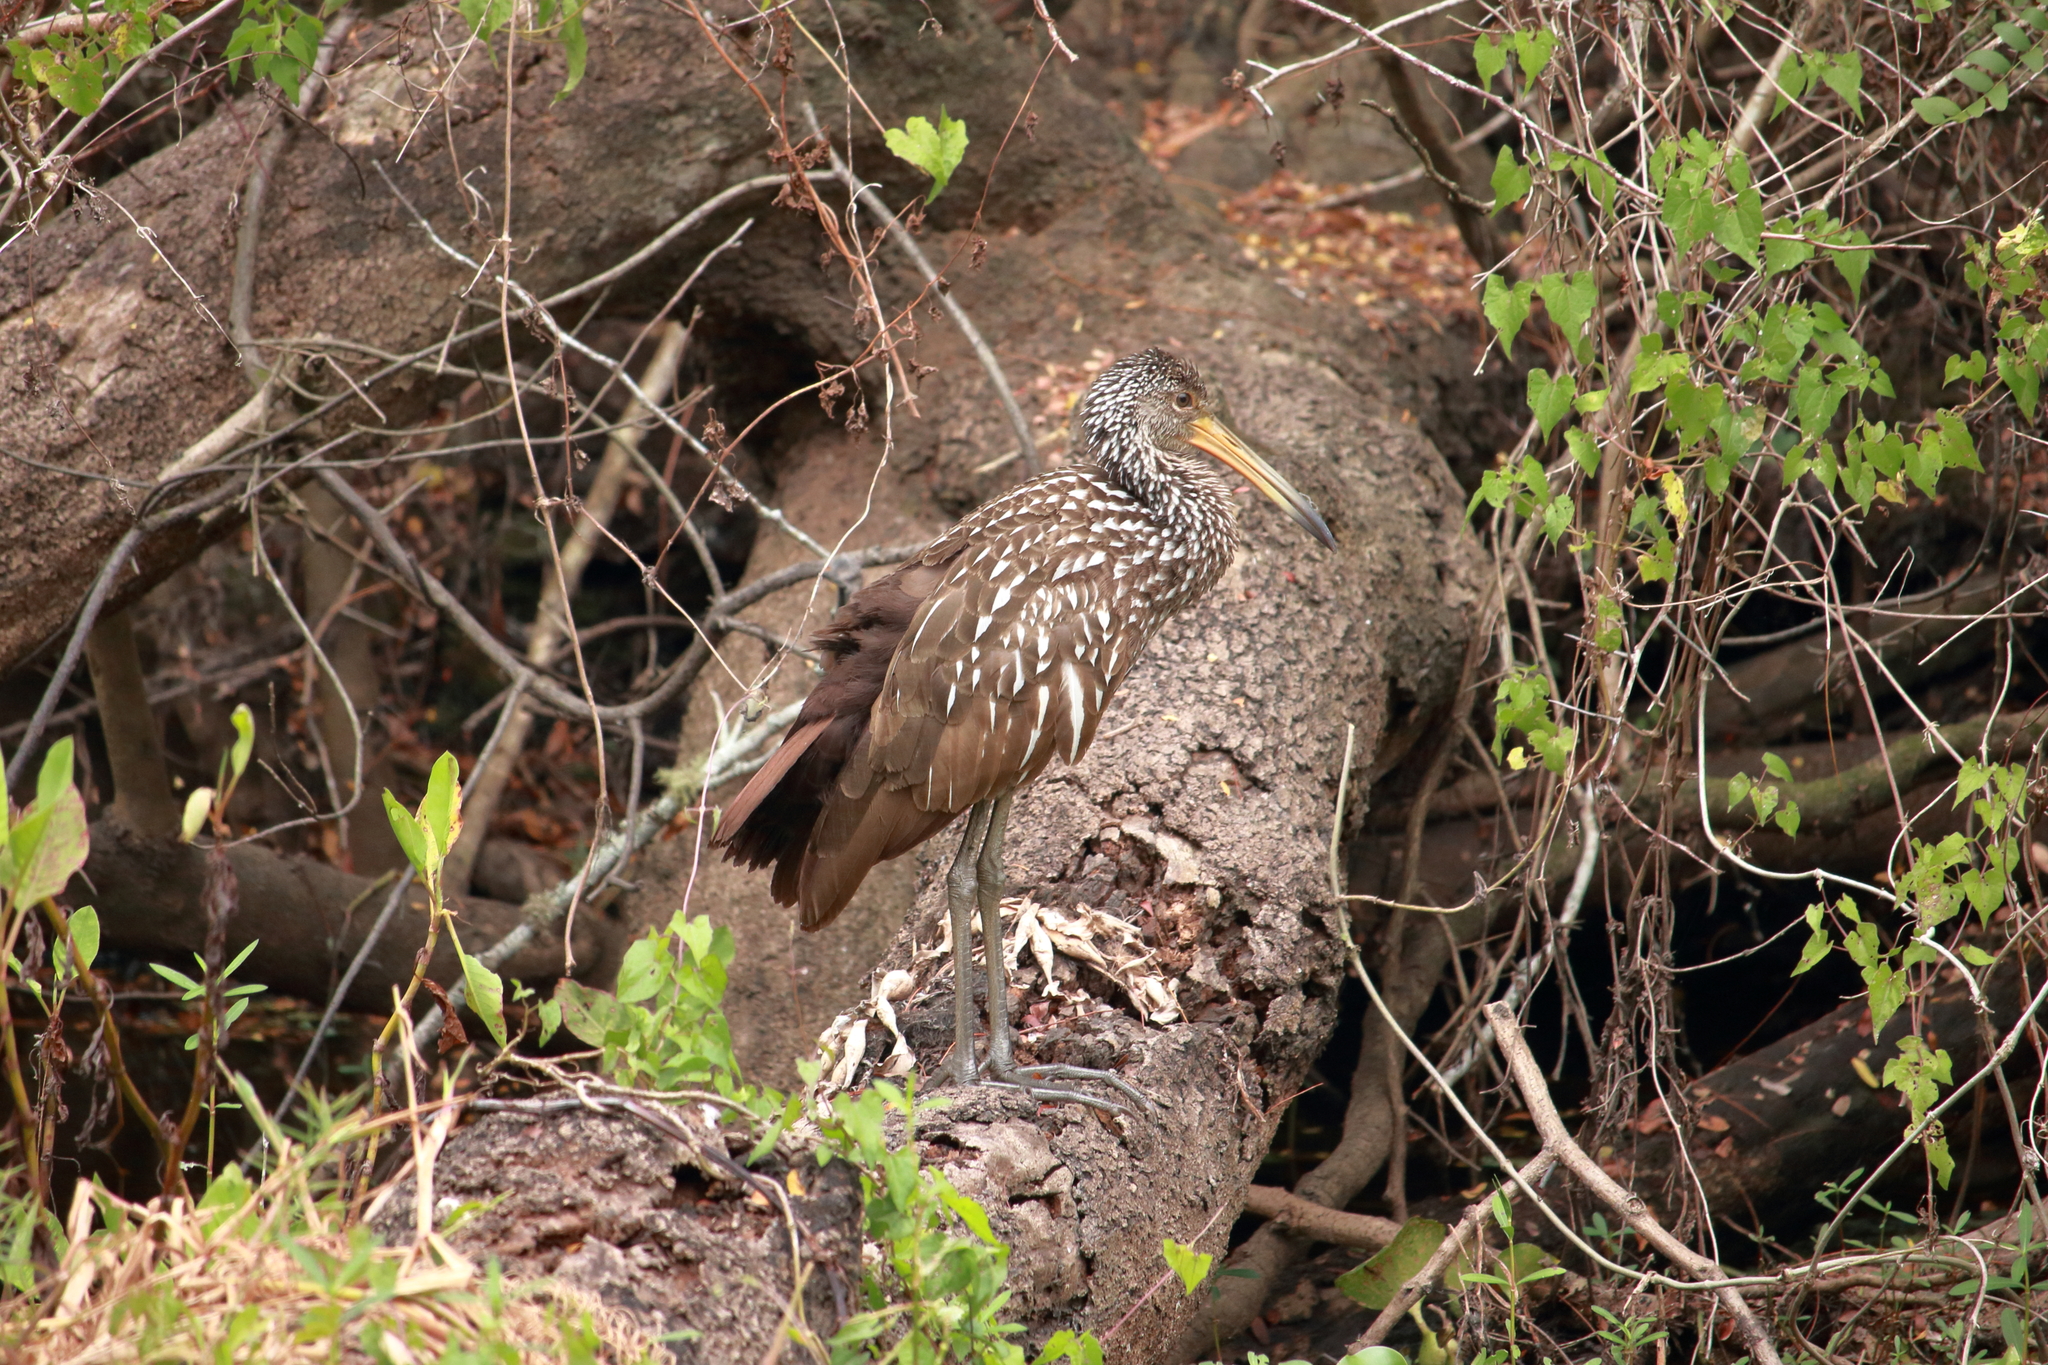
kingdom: Animalia
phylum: Chordata
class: Aves
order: Gruiformes
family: Aramidae
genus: Aramus
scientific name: Aramus guarauna
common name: Limpkin
